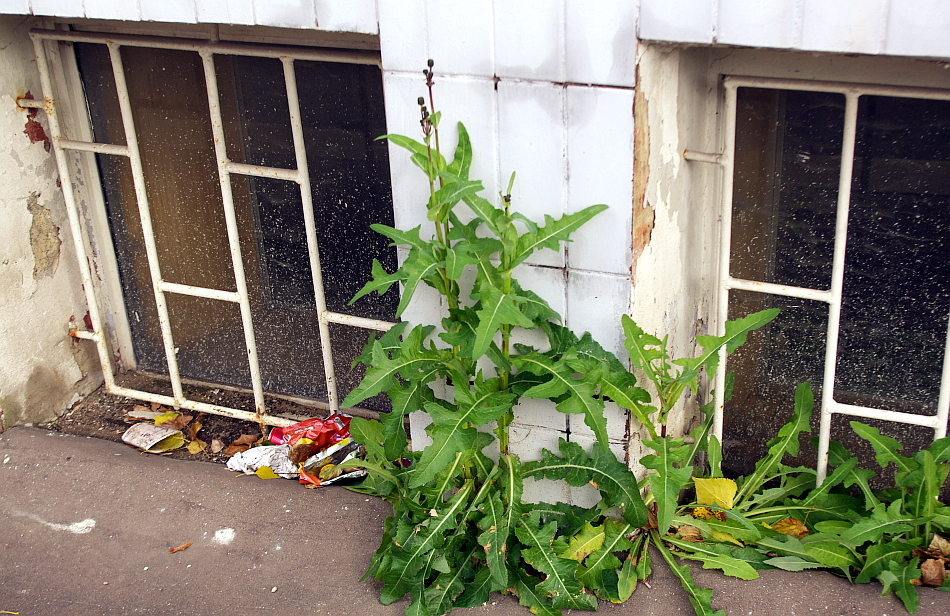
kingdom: Plantae
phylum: Tracheophyta
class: Magnoliopsida
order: Asterales
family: Asteraceae
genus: Sonchus
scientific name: Sonchus arvensis
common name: Perennial sow-thistle
